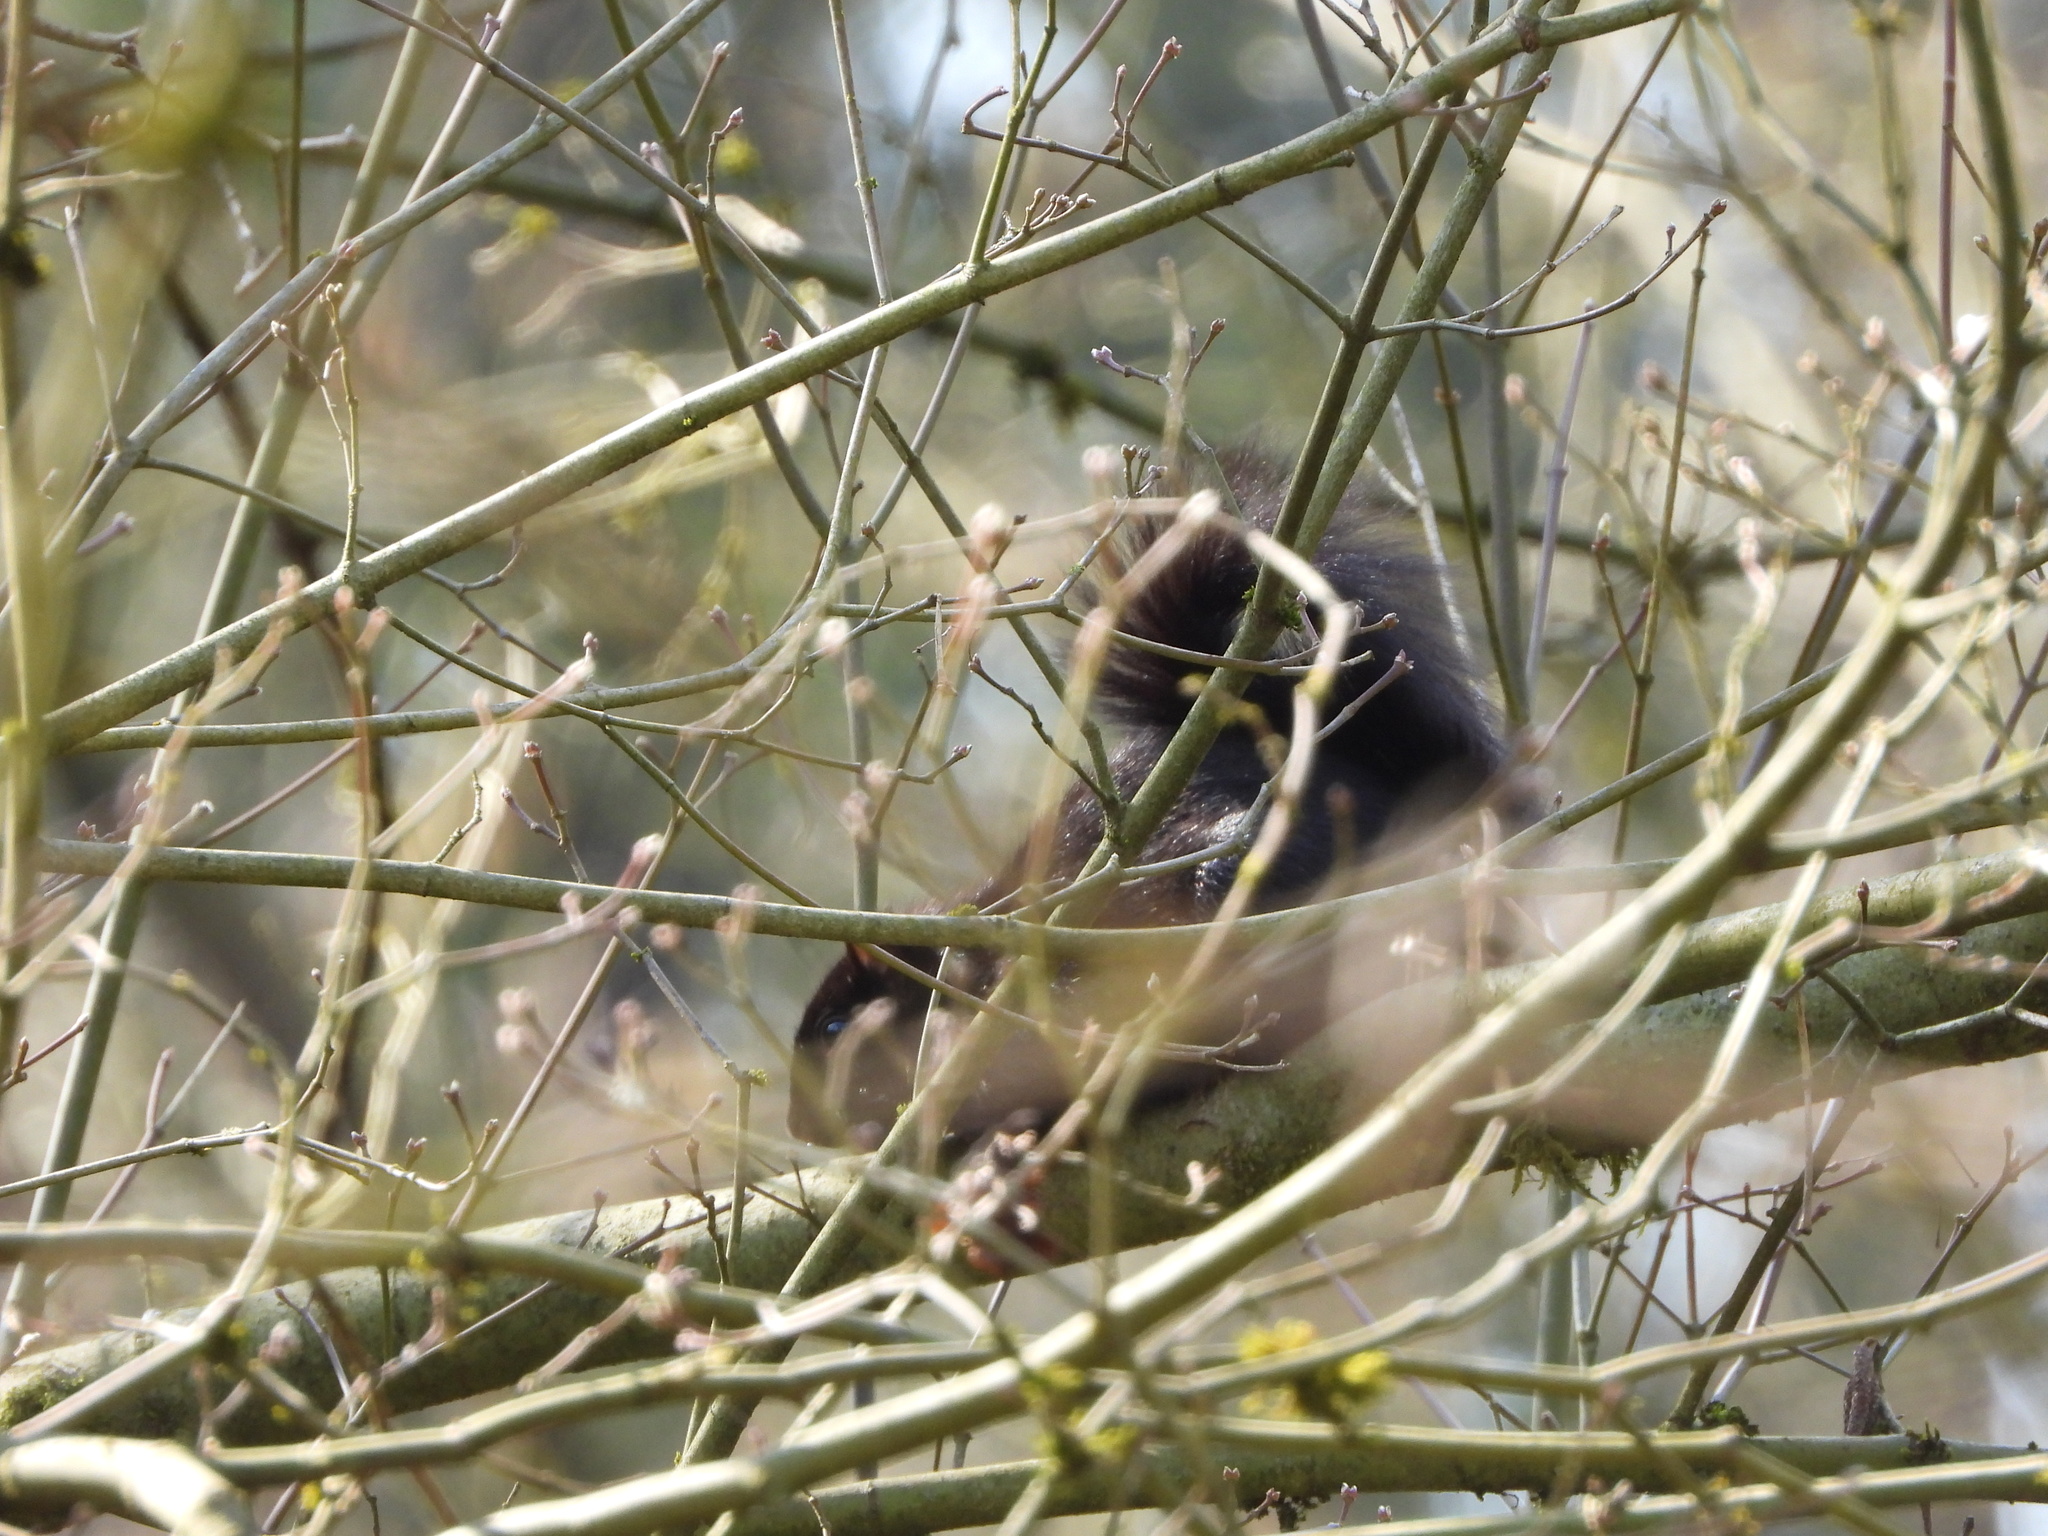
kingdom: Animalia
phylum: Chordata
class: Mammalia
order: Rodentia
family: Sciuridae
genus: Sciurus
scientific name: Sciurus carolinensis
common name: Eastern gray squirrel
